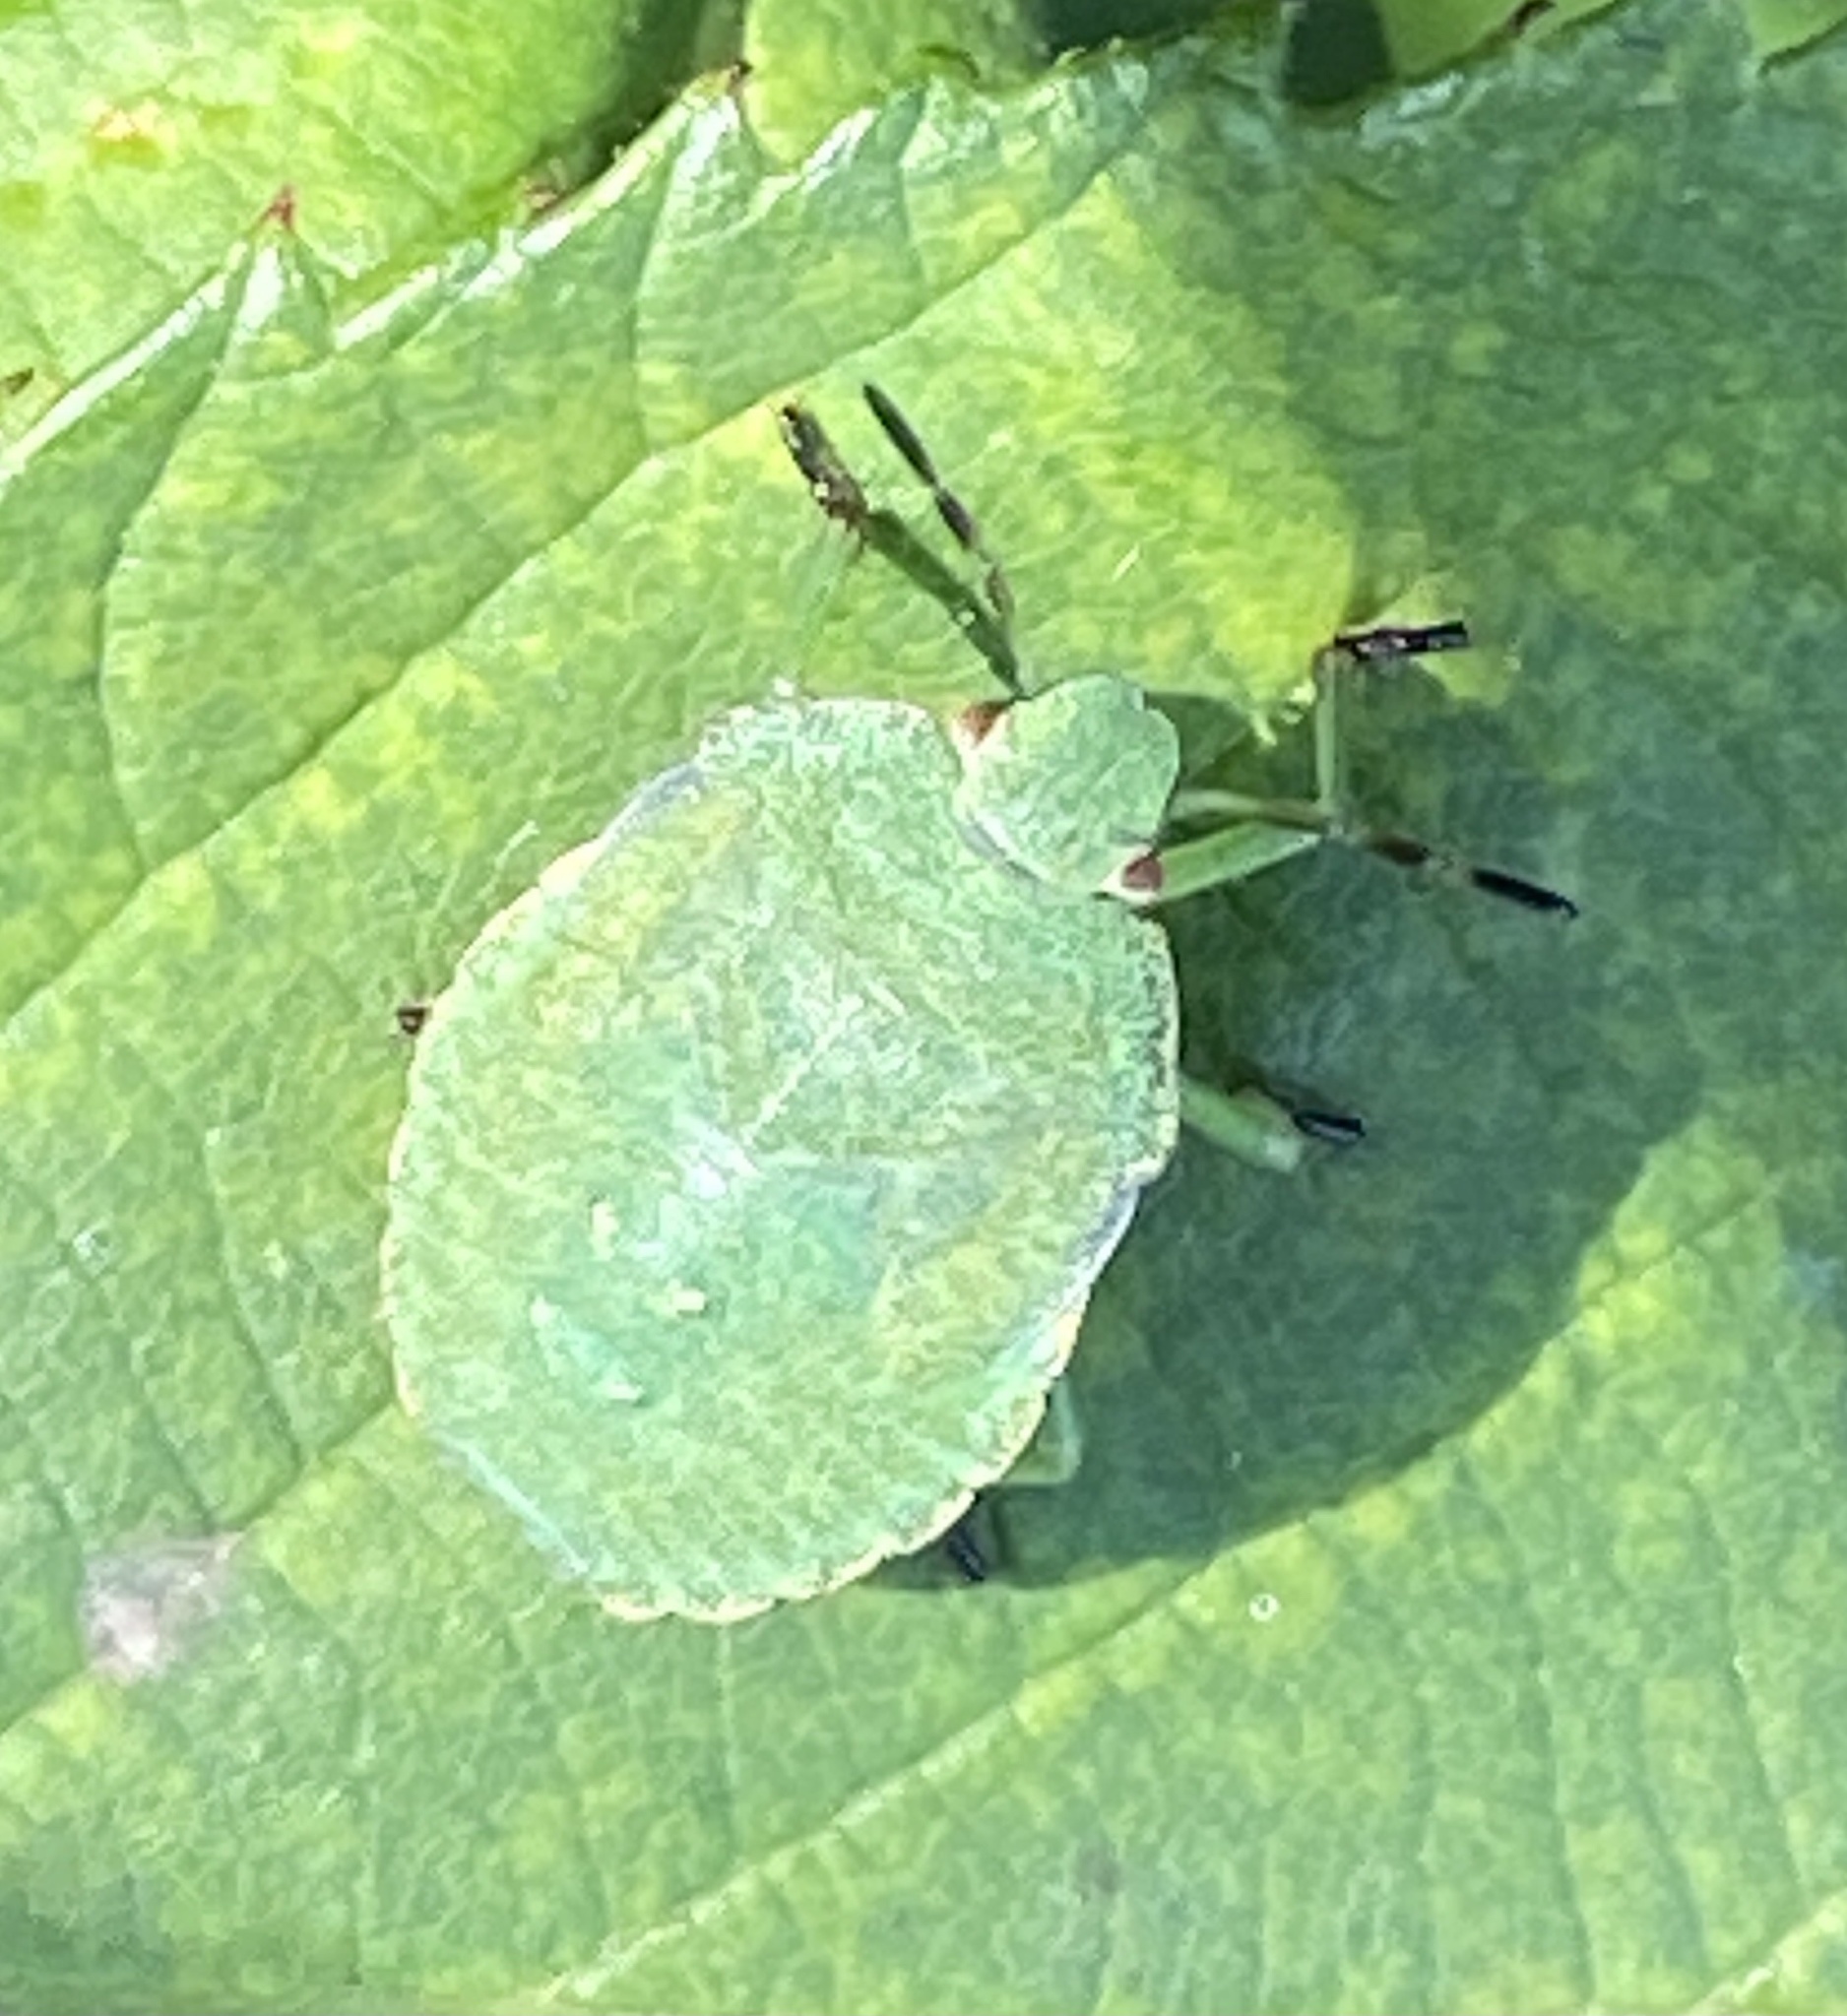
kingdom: Animalia
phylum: Arthropoda
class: Insecta
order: Hemiptera
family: Pentatomidae
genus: Palomena
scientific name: Palomena prasina
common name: Green shieldbug
